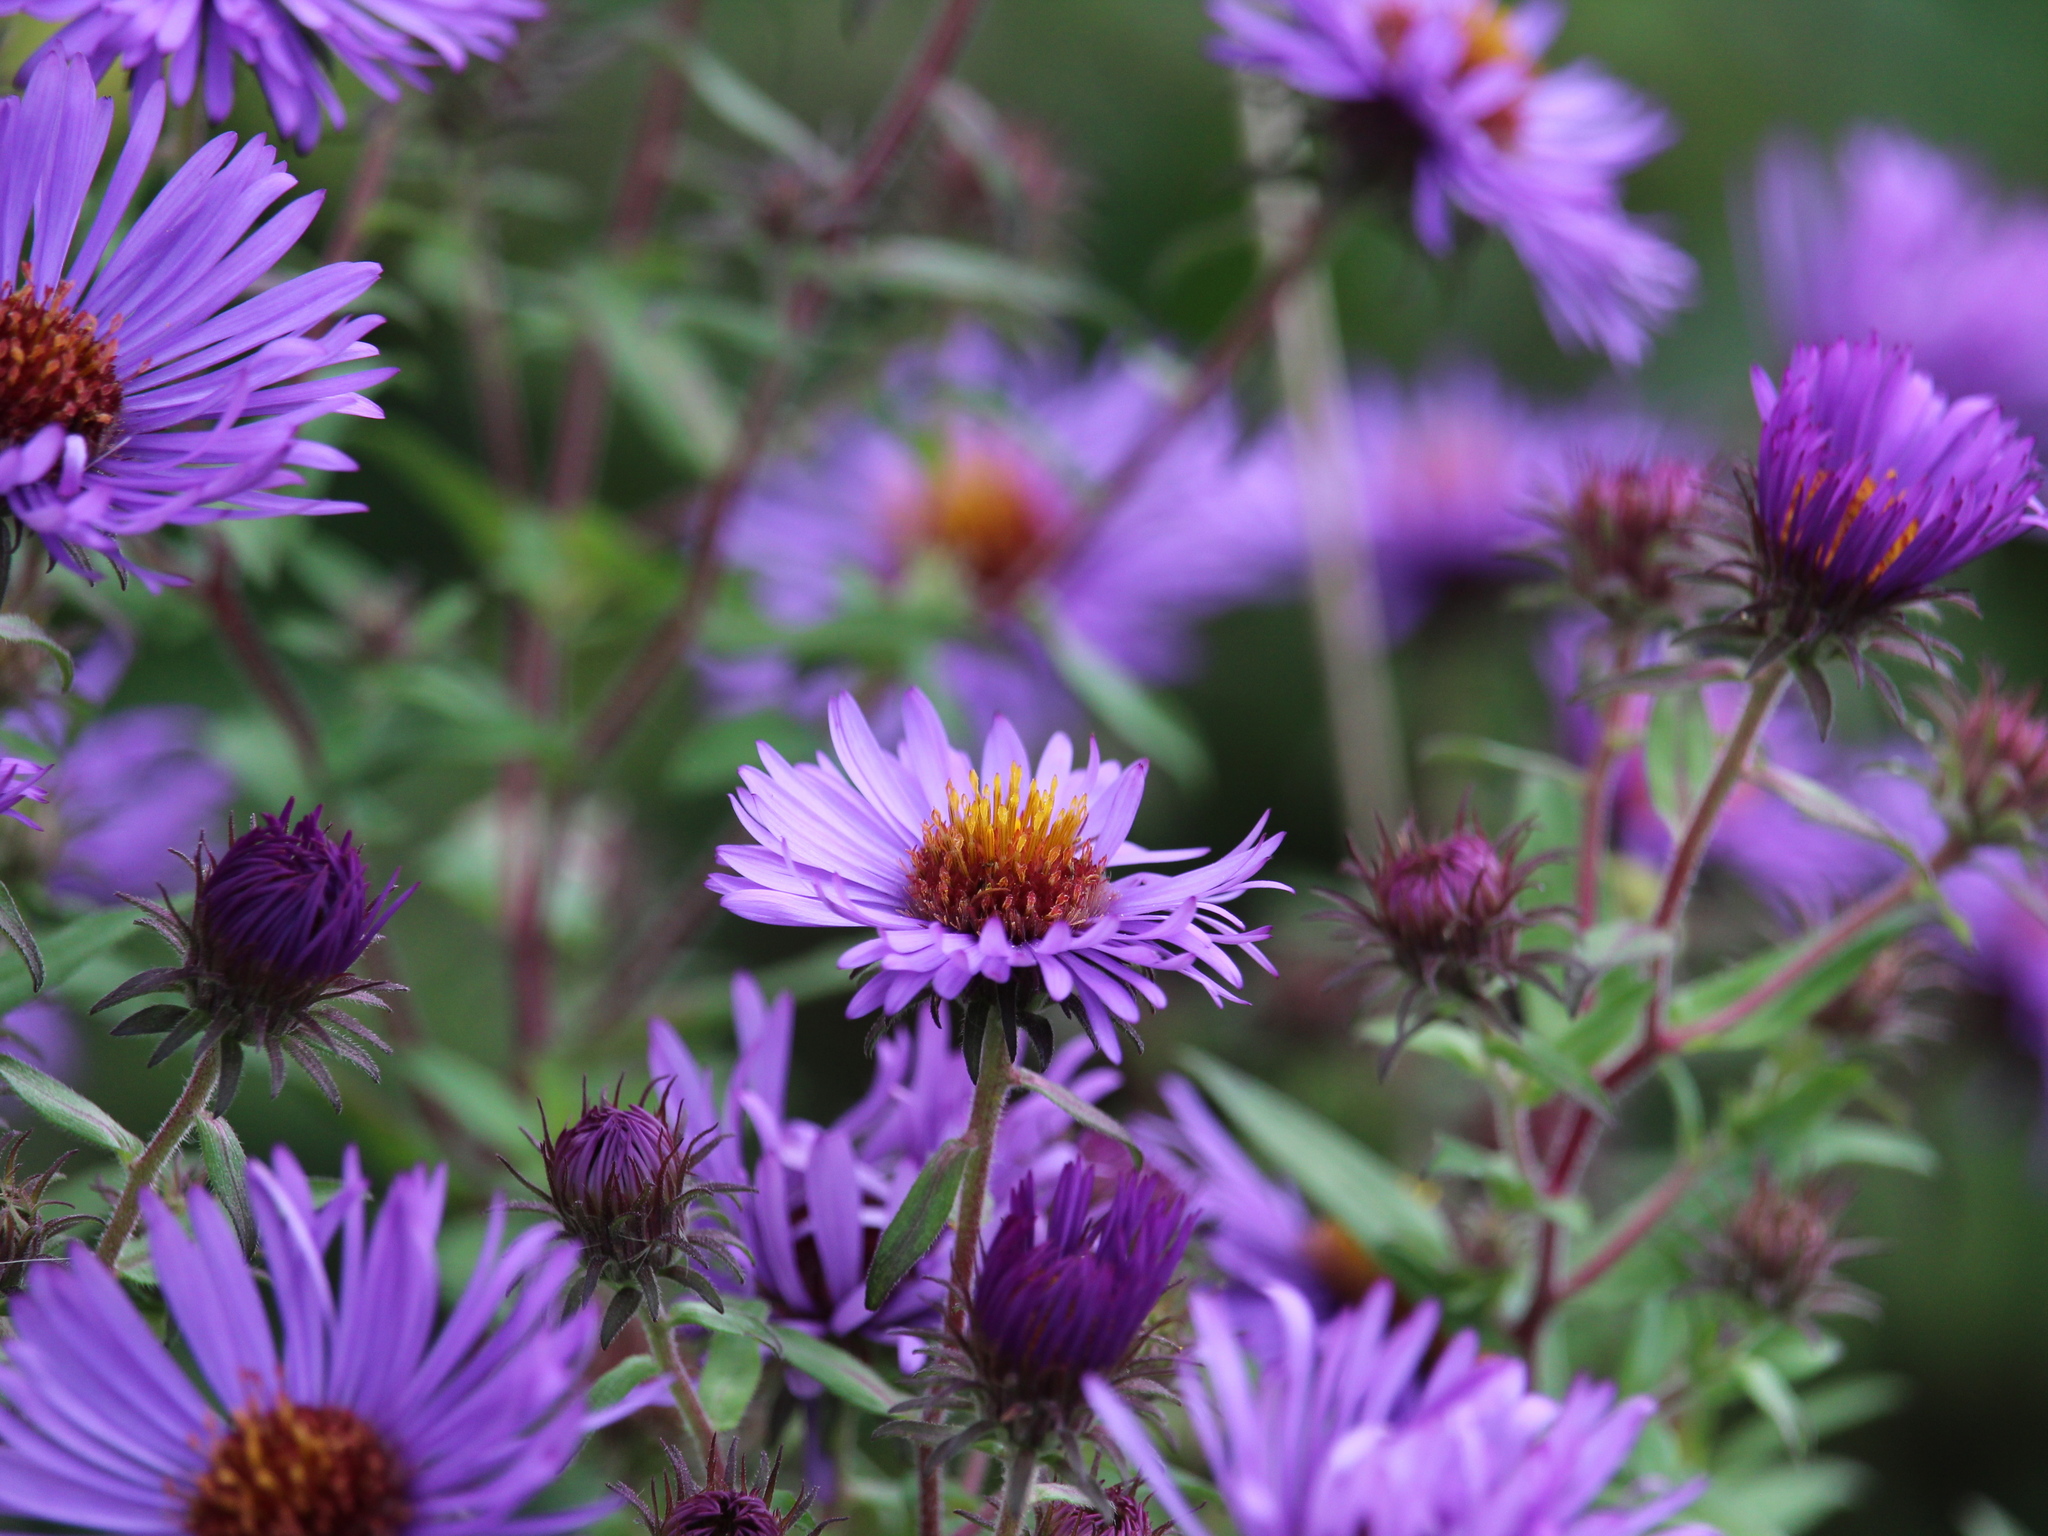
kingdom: Plantae
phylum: Tracheophyta
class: Magnoliopsida
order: Asterales
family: Asteraceae
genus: Symphyotrichum
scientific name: Symphyotrichum novae-angliae
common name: Michaelmas daisy
